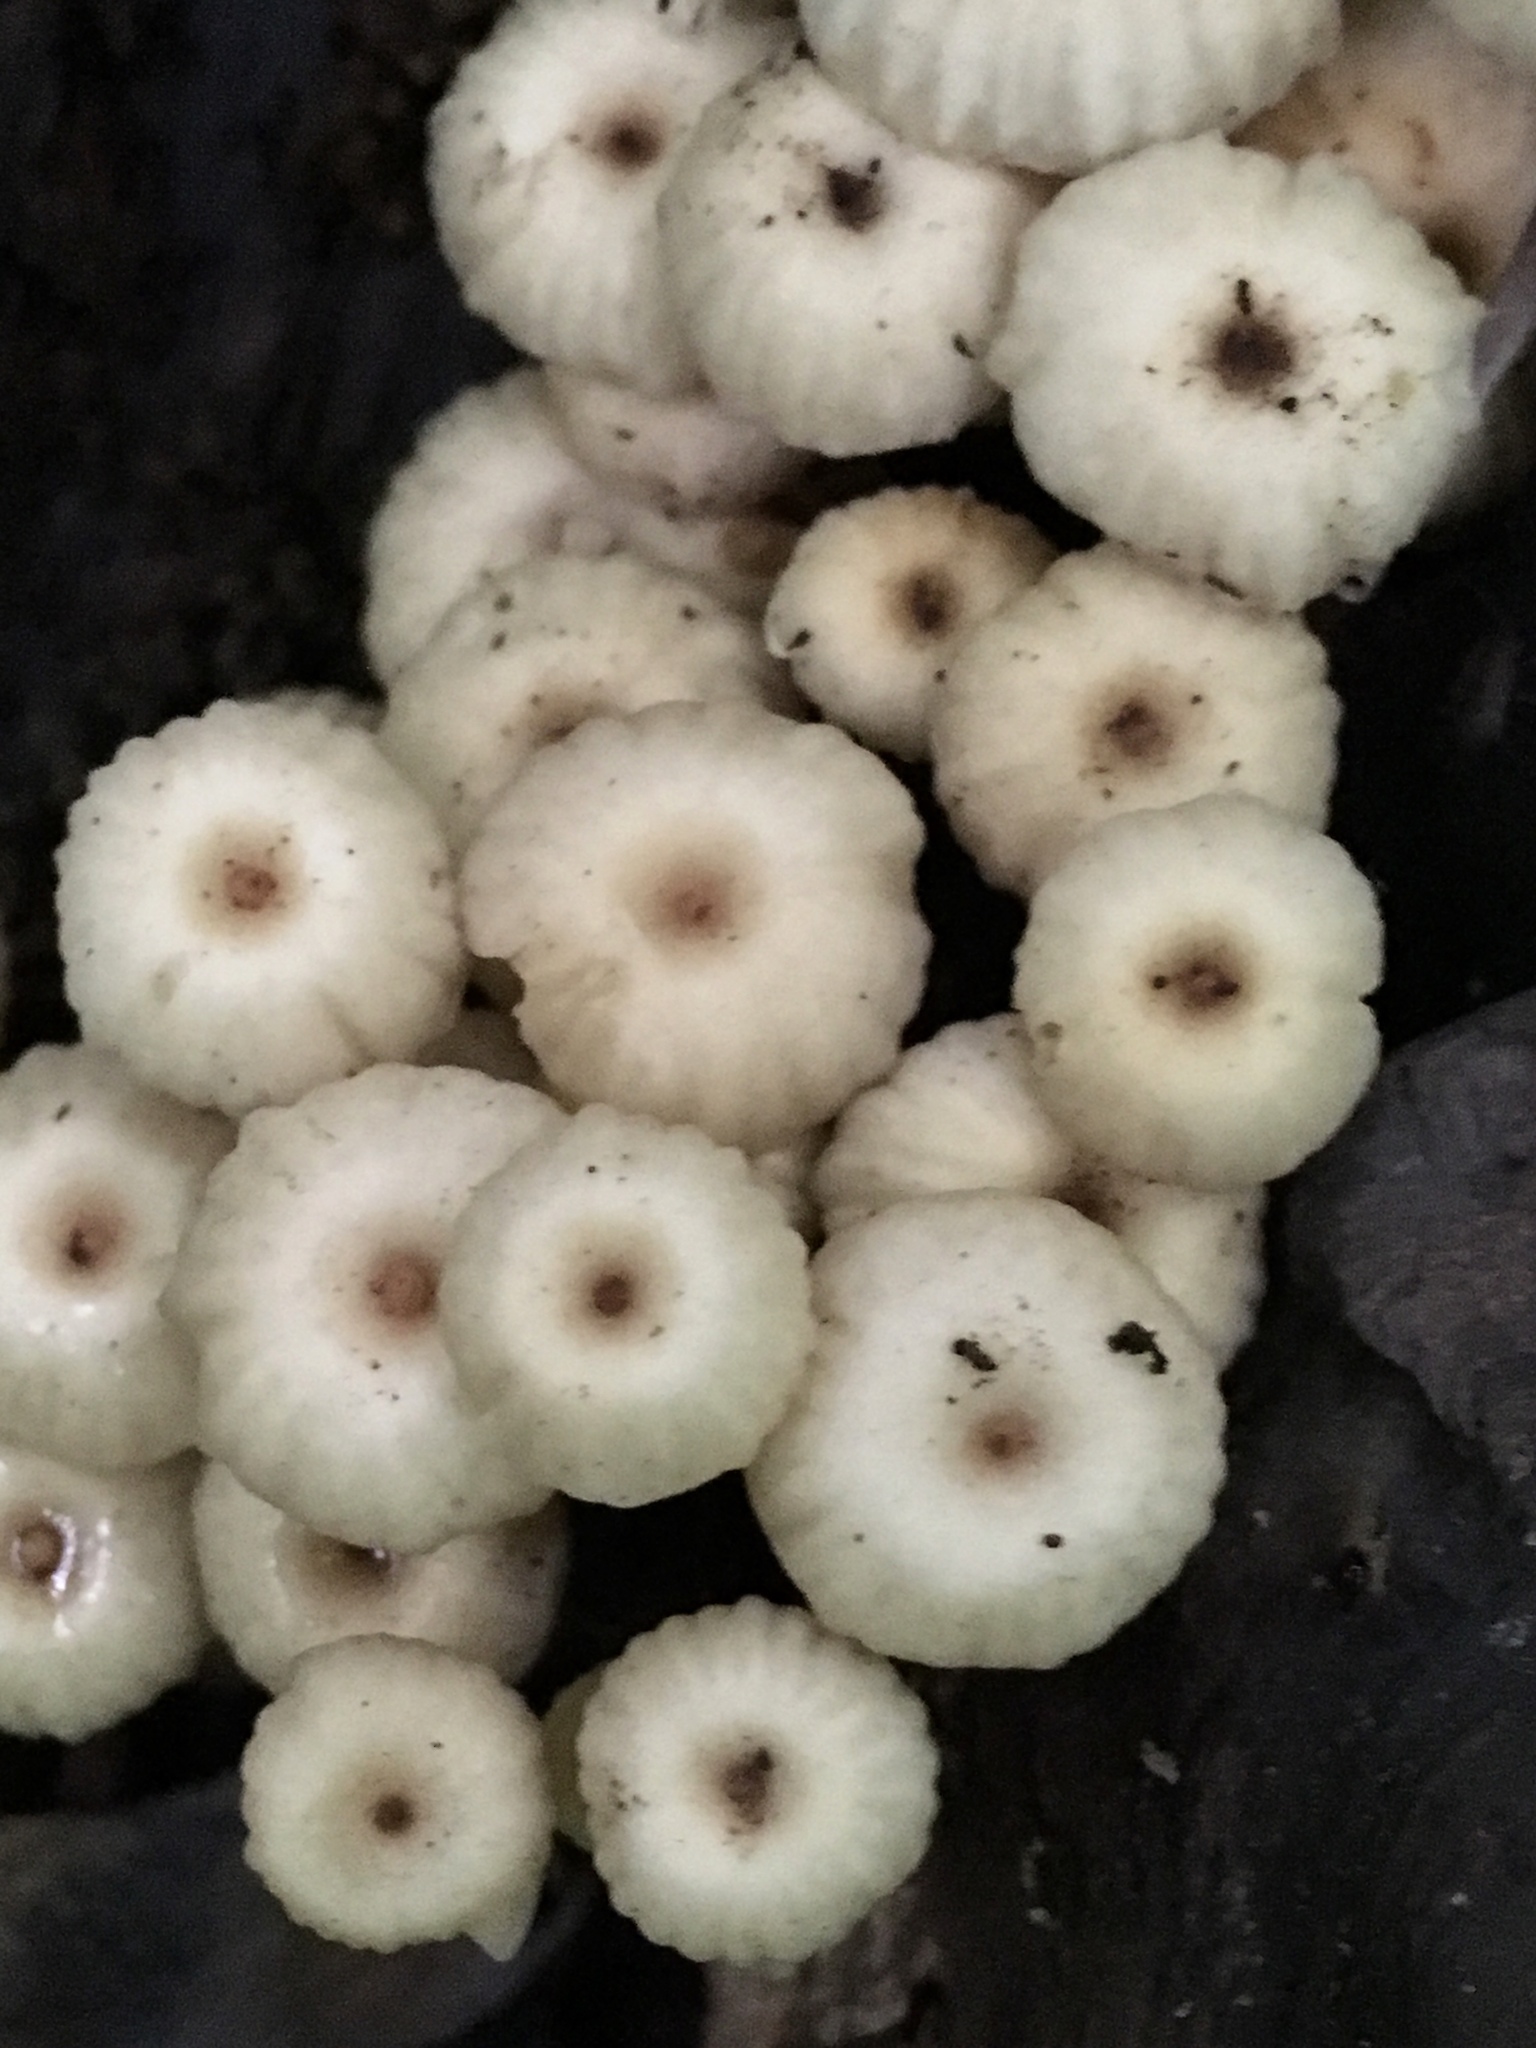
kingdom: Fungi
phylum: Basidiomycota
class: Agaricomycetes
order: Agaricales
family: Marasmiaceae
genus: Marasmius
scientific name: Marasmius rotula
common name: Collared parachute
